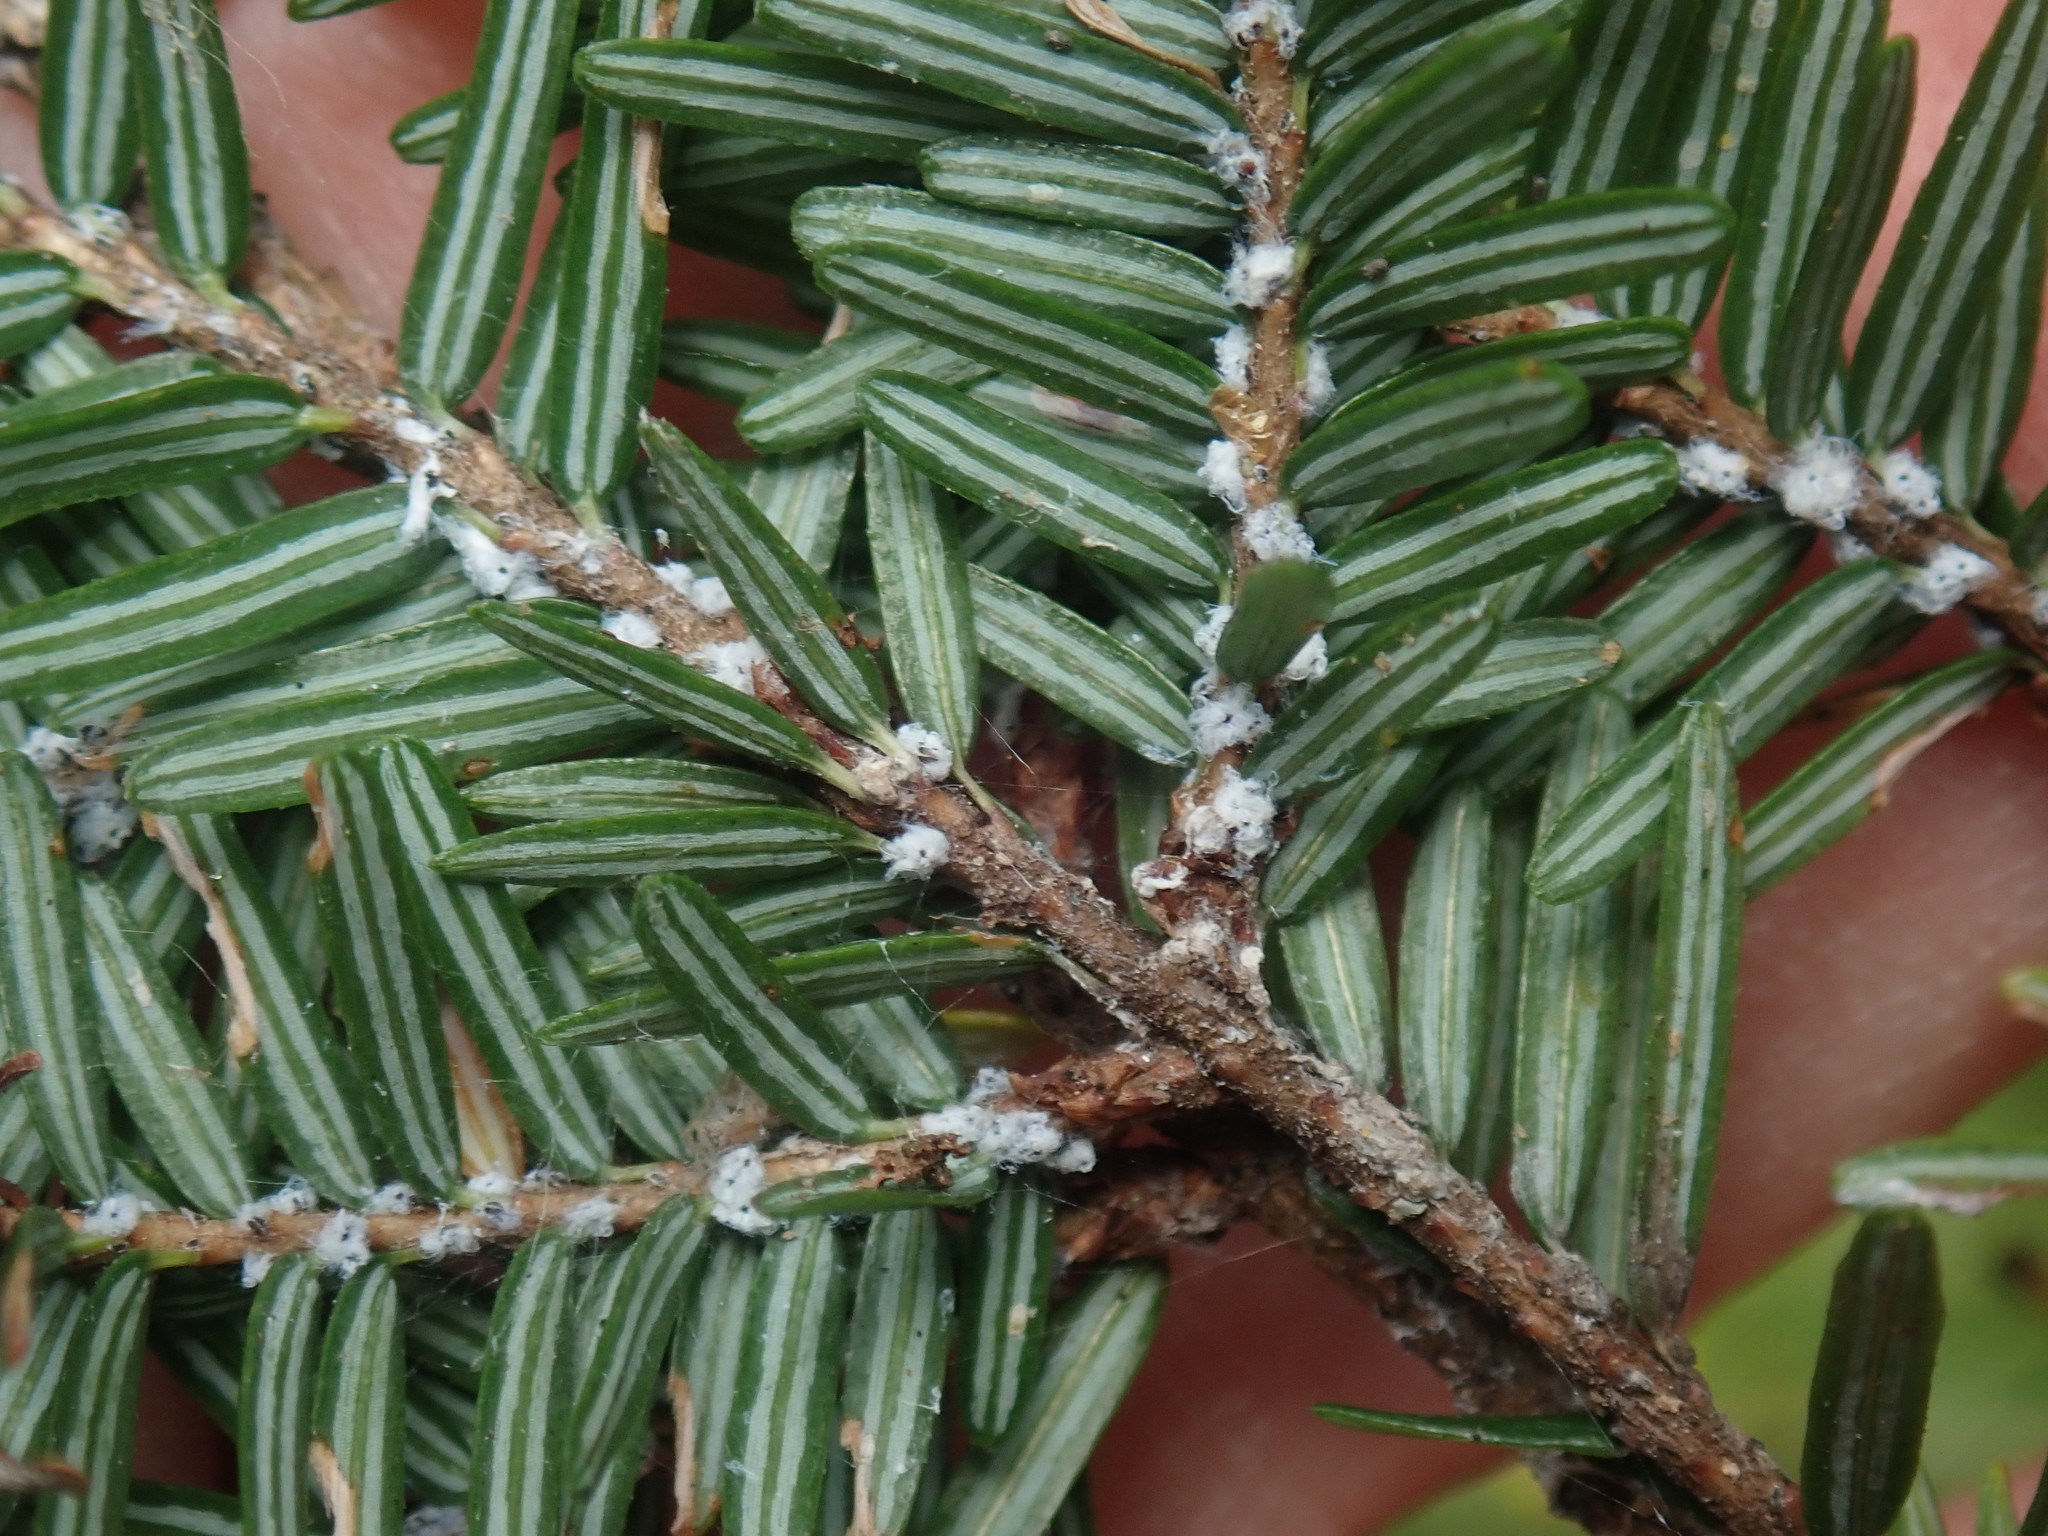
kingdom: Animalia
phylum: Arthropoda
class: Insecta
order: Hemiptera
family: Adelgidae
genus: Adelges
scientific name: Adelges tsugae
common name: Hemlock woolly adelgid
